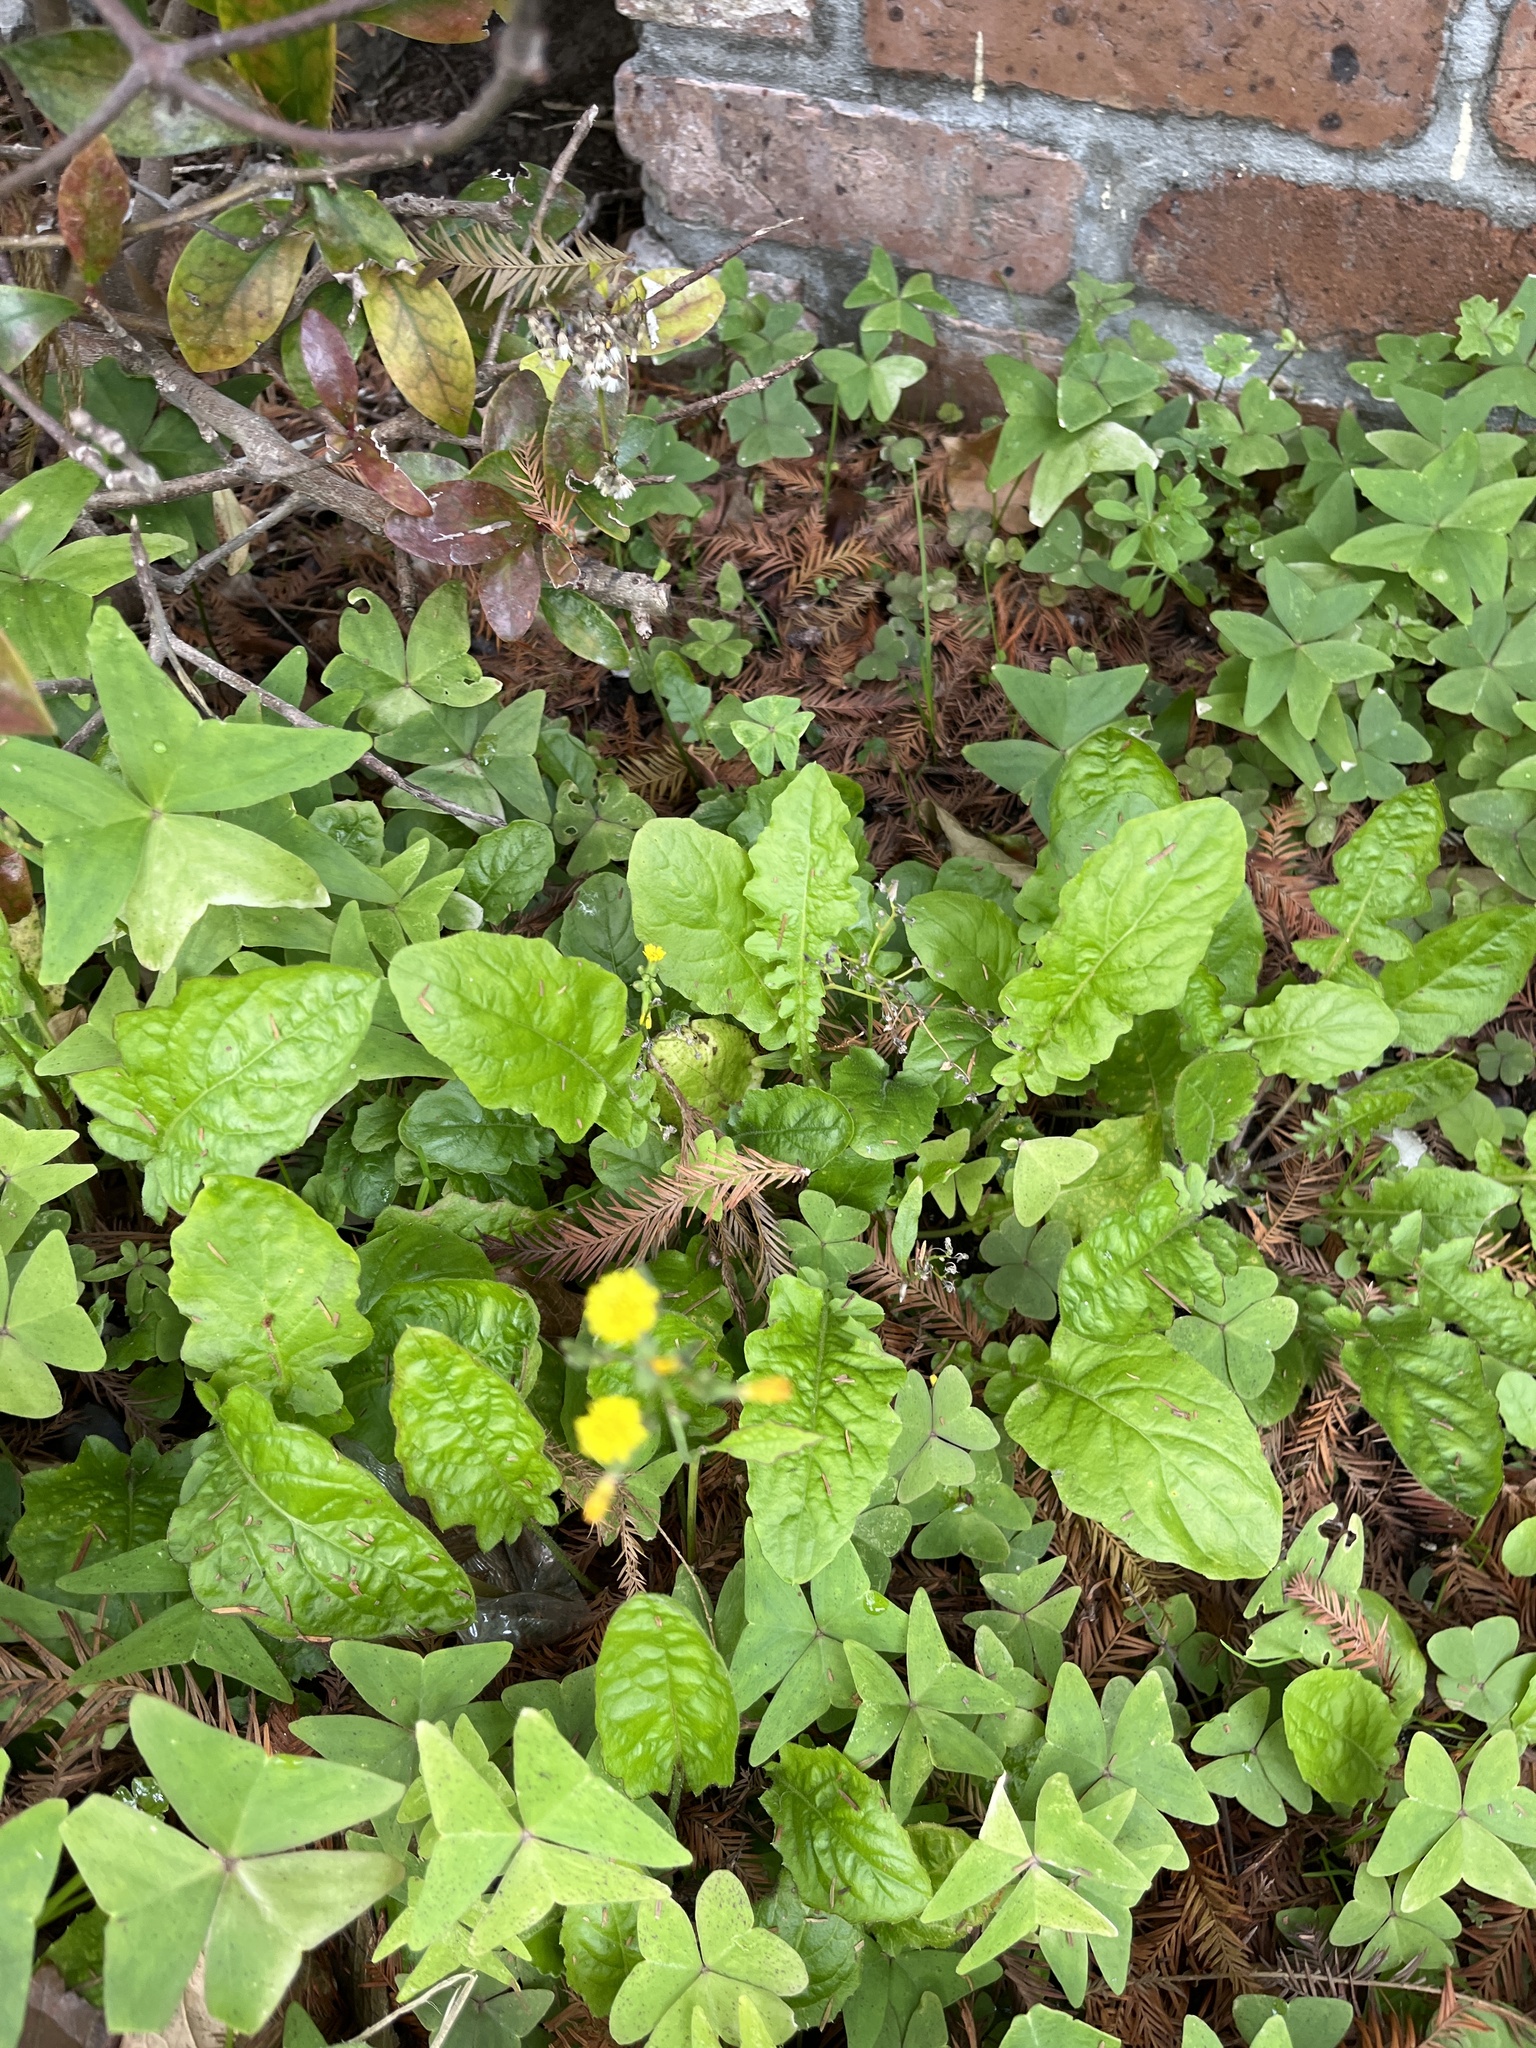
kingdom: Plantae
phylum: Tracheophyta
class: Magnoliopsida
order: Asterales
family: Asteraceae
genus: Youngia
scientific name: Youngia japonica
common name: Oriental false hawksbeard
